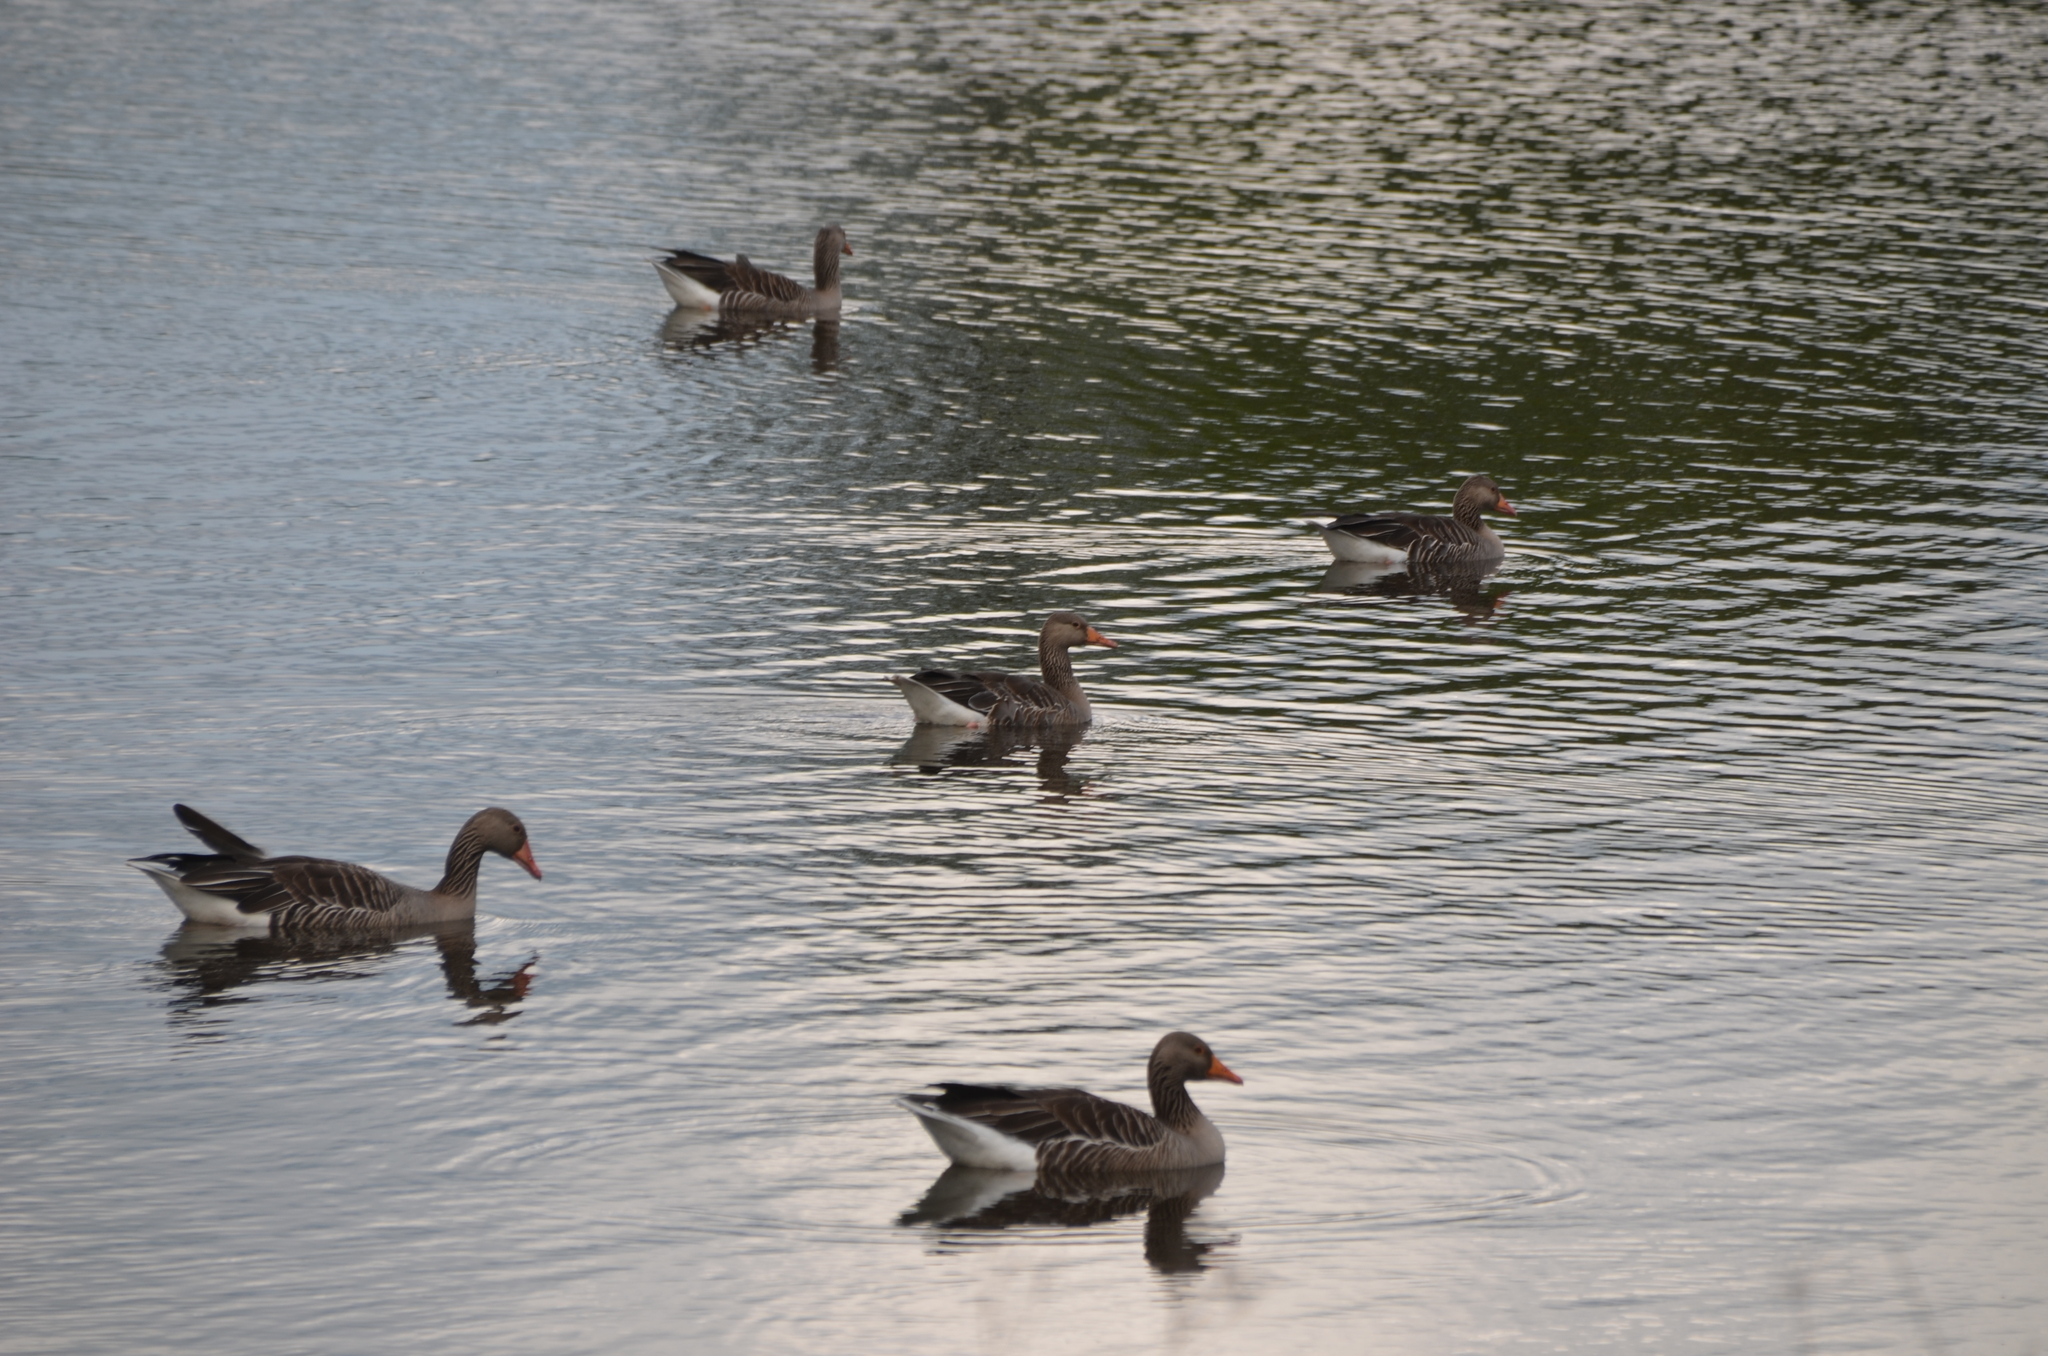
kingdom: Animalia
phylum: Chordata
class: Aves
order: Anseriformes
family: Anatidae
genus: Anser
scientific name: Anser anser
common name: Greylag goose
